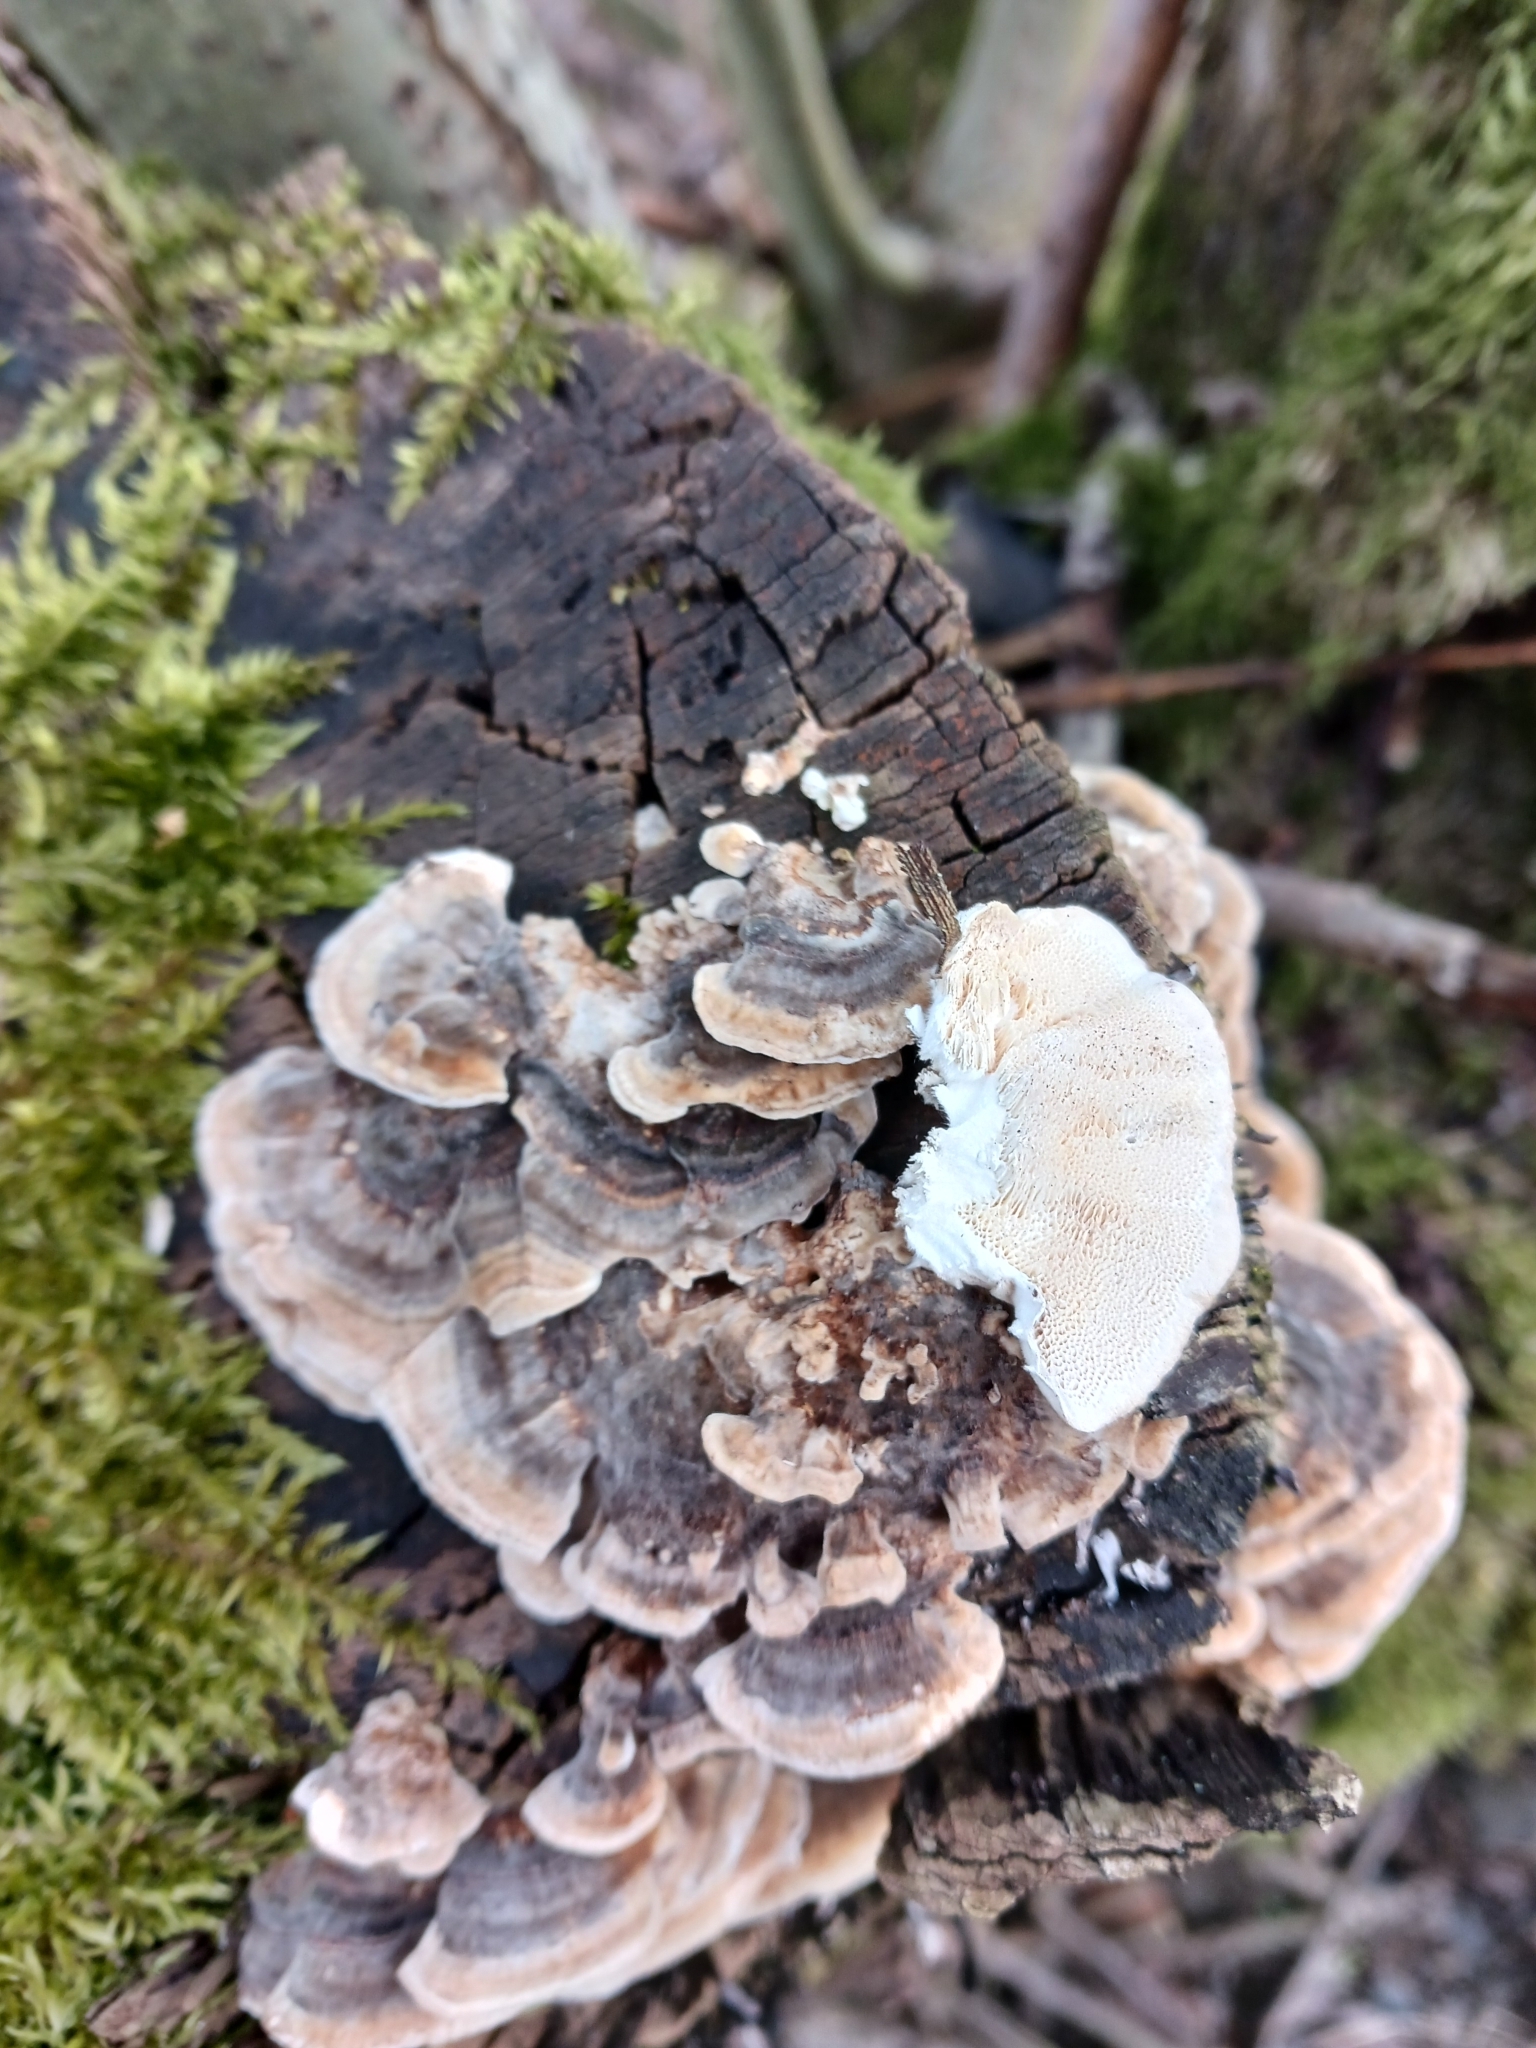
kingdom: Fungi
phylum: Basidiomycota
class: Agaricomycetes
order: Polyporales
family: Polyporaceae
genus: Trametes
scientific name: Trametes versicolor
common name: Turkeytail
